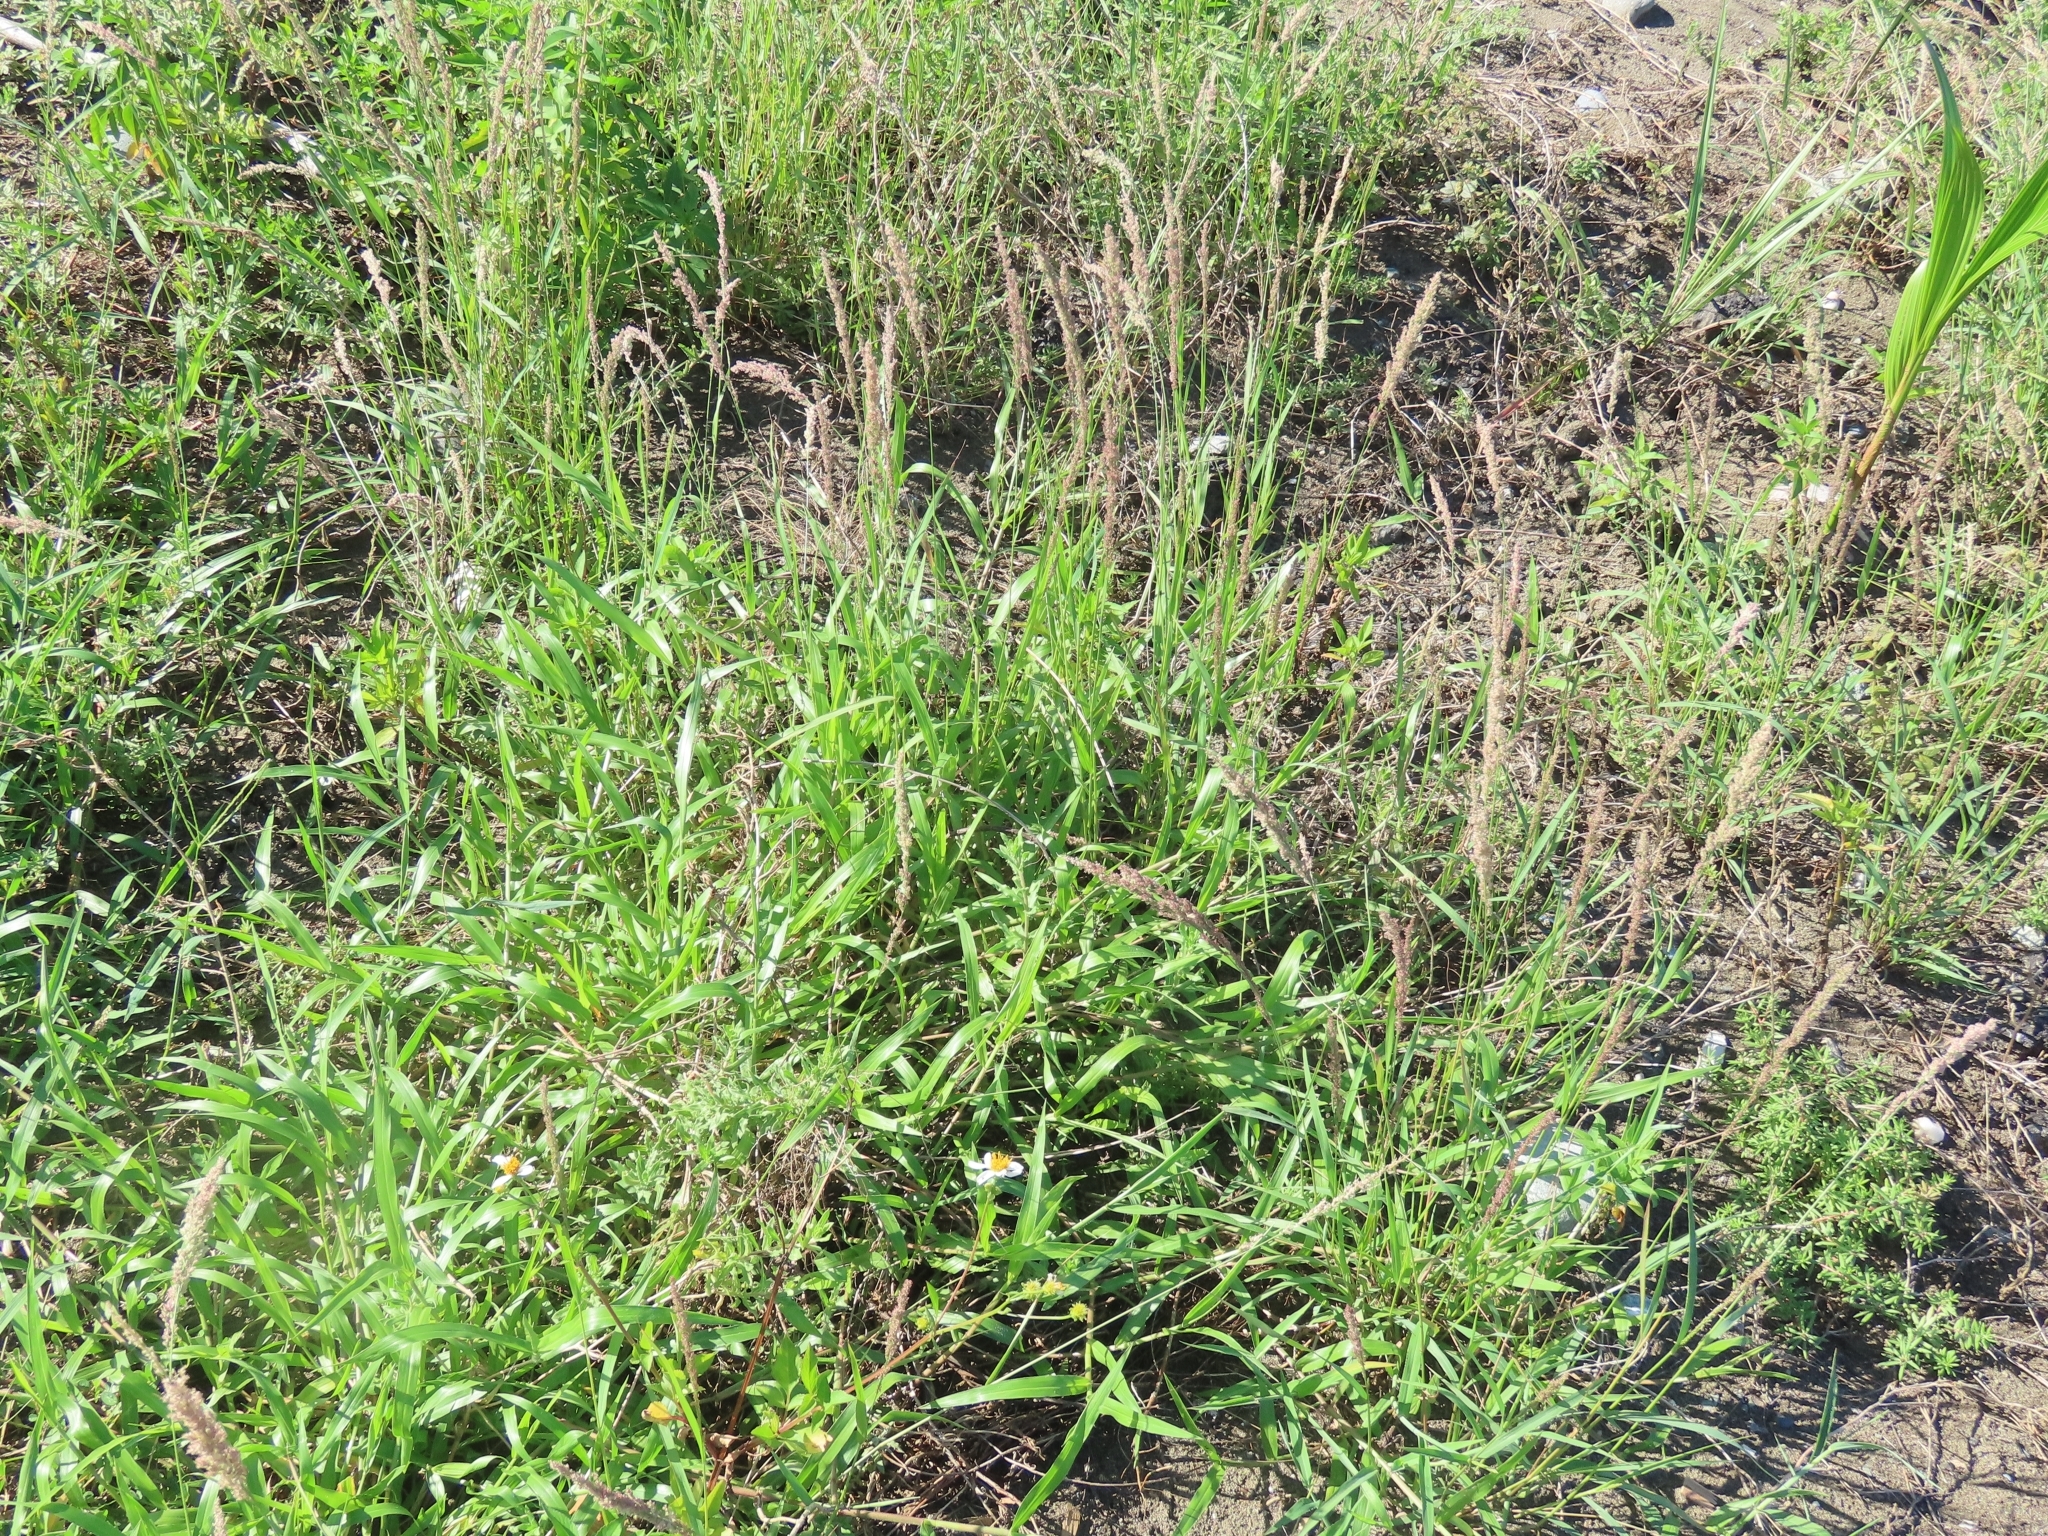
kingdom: Plantae
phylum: Tracheophyta
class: Liliopsida
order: Poales
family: Poaceae
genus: Eragrostis
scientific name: Eragrostis ciliaris
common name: Gophertail lovegrass
